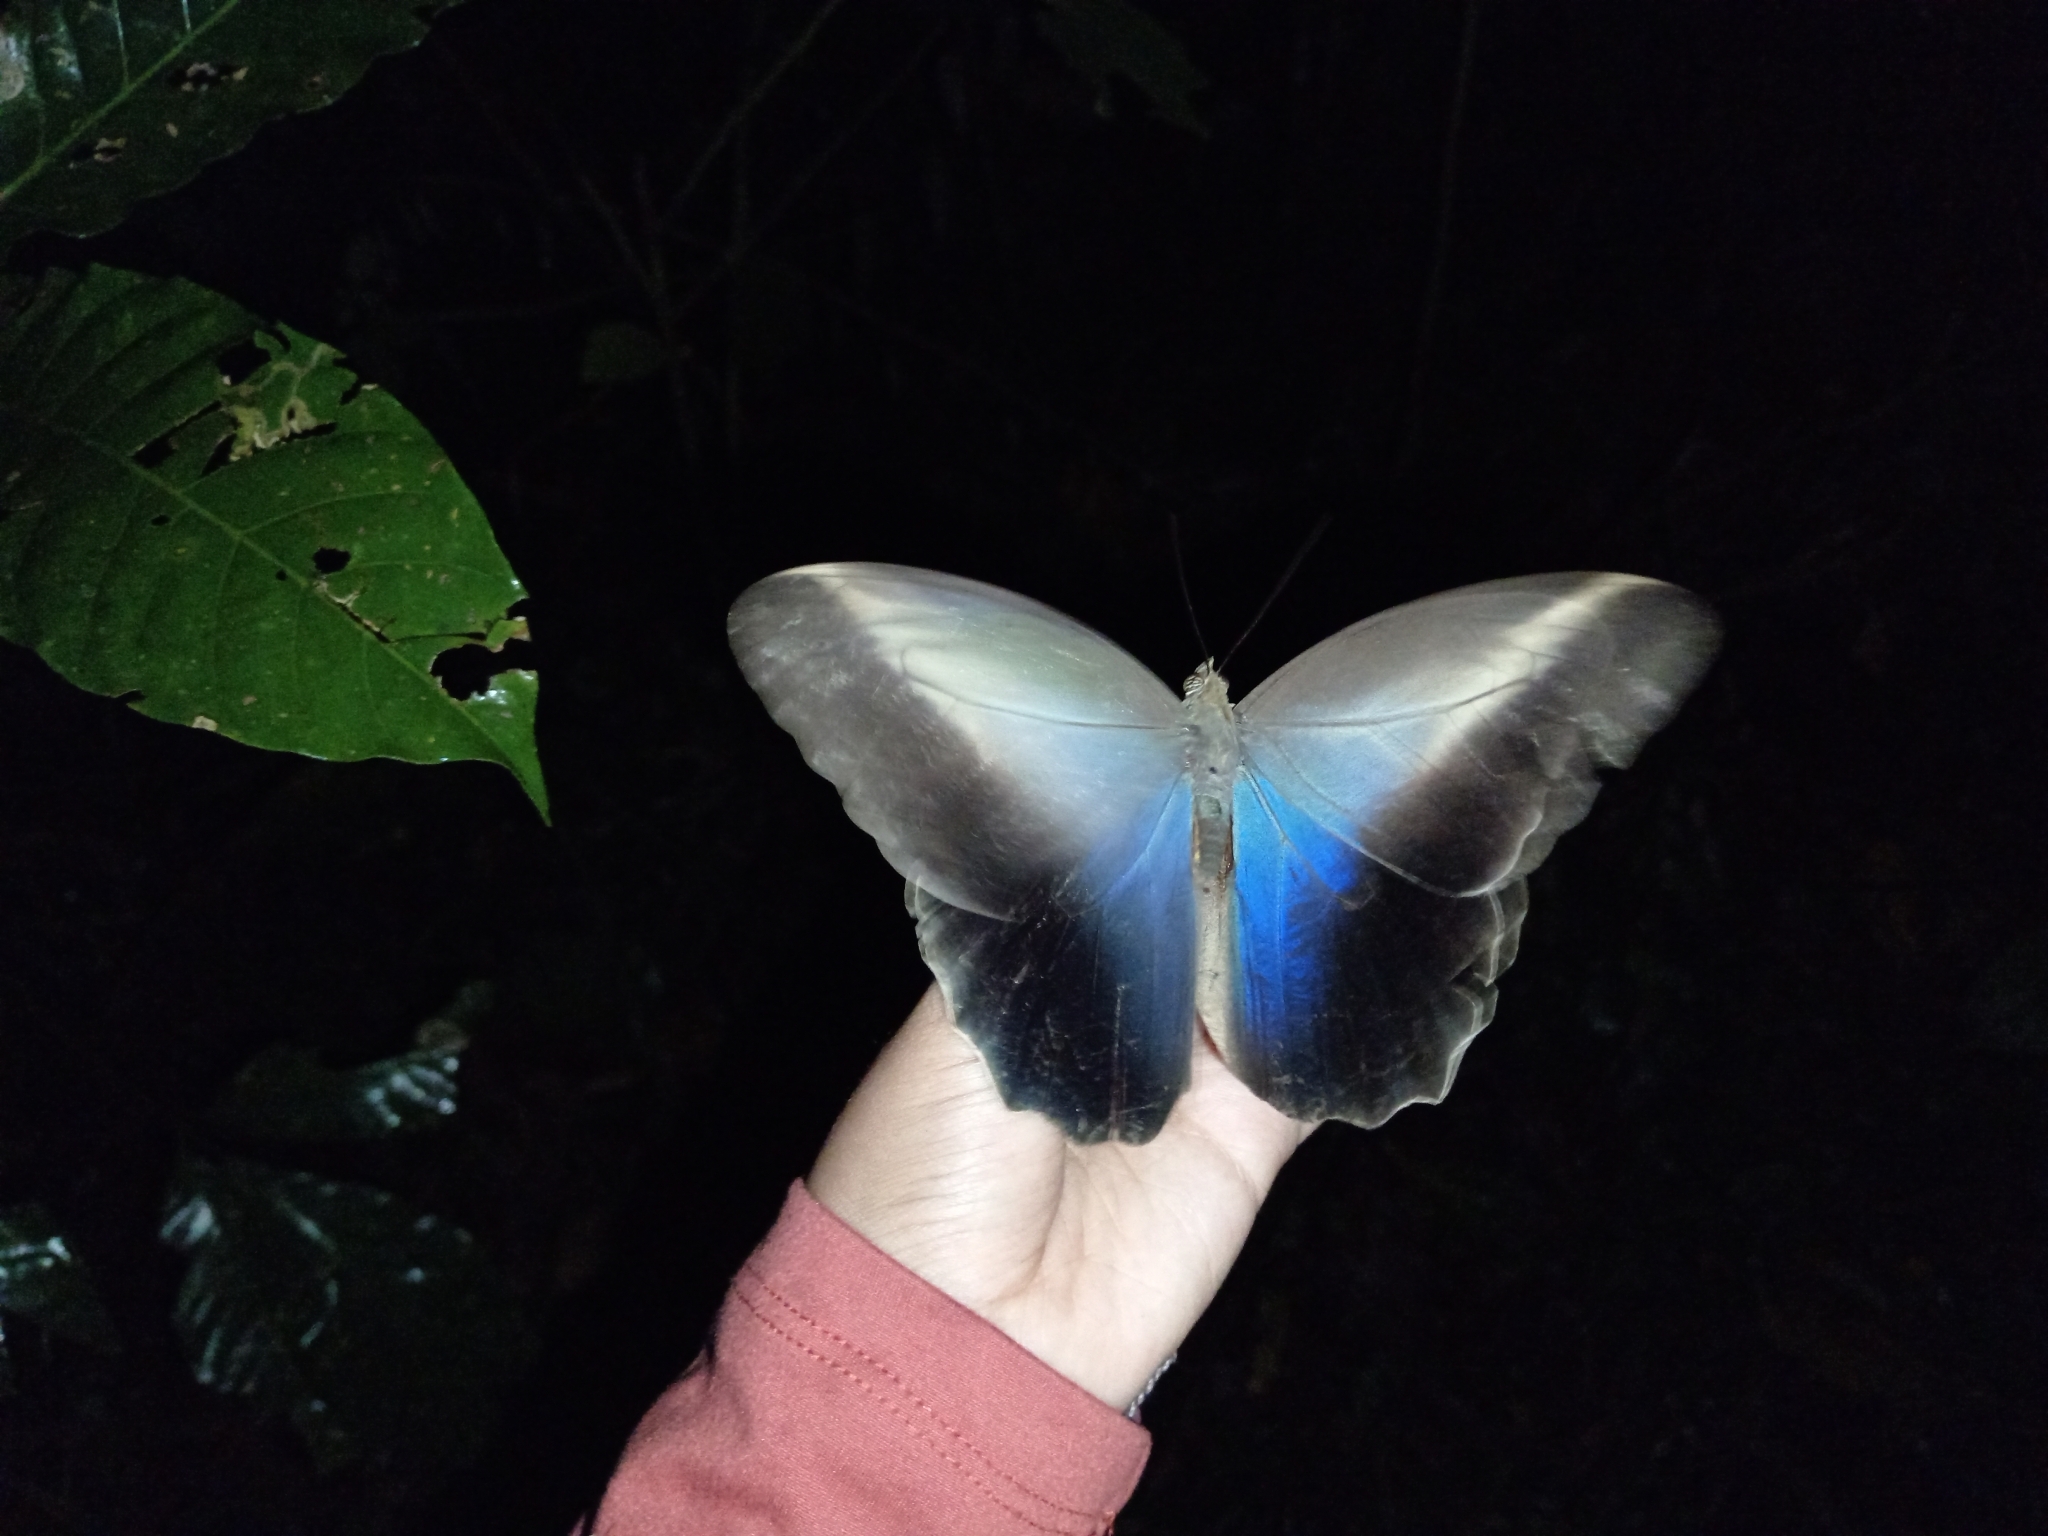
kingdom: Animalia
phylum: Arthropoda
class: Insecta
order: Lepidoptera
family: Nymphalidae
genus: Caligo
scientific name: Caligo teucer
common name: Teucer owl butterfly
